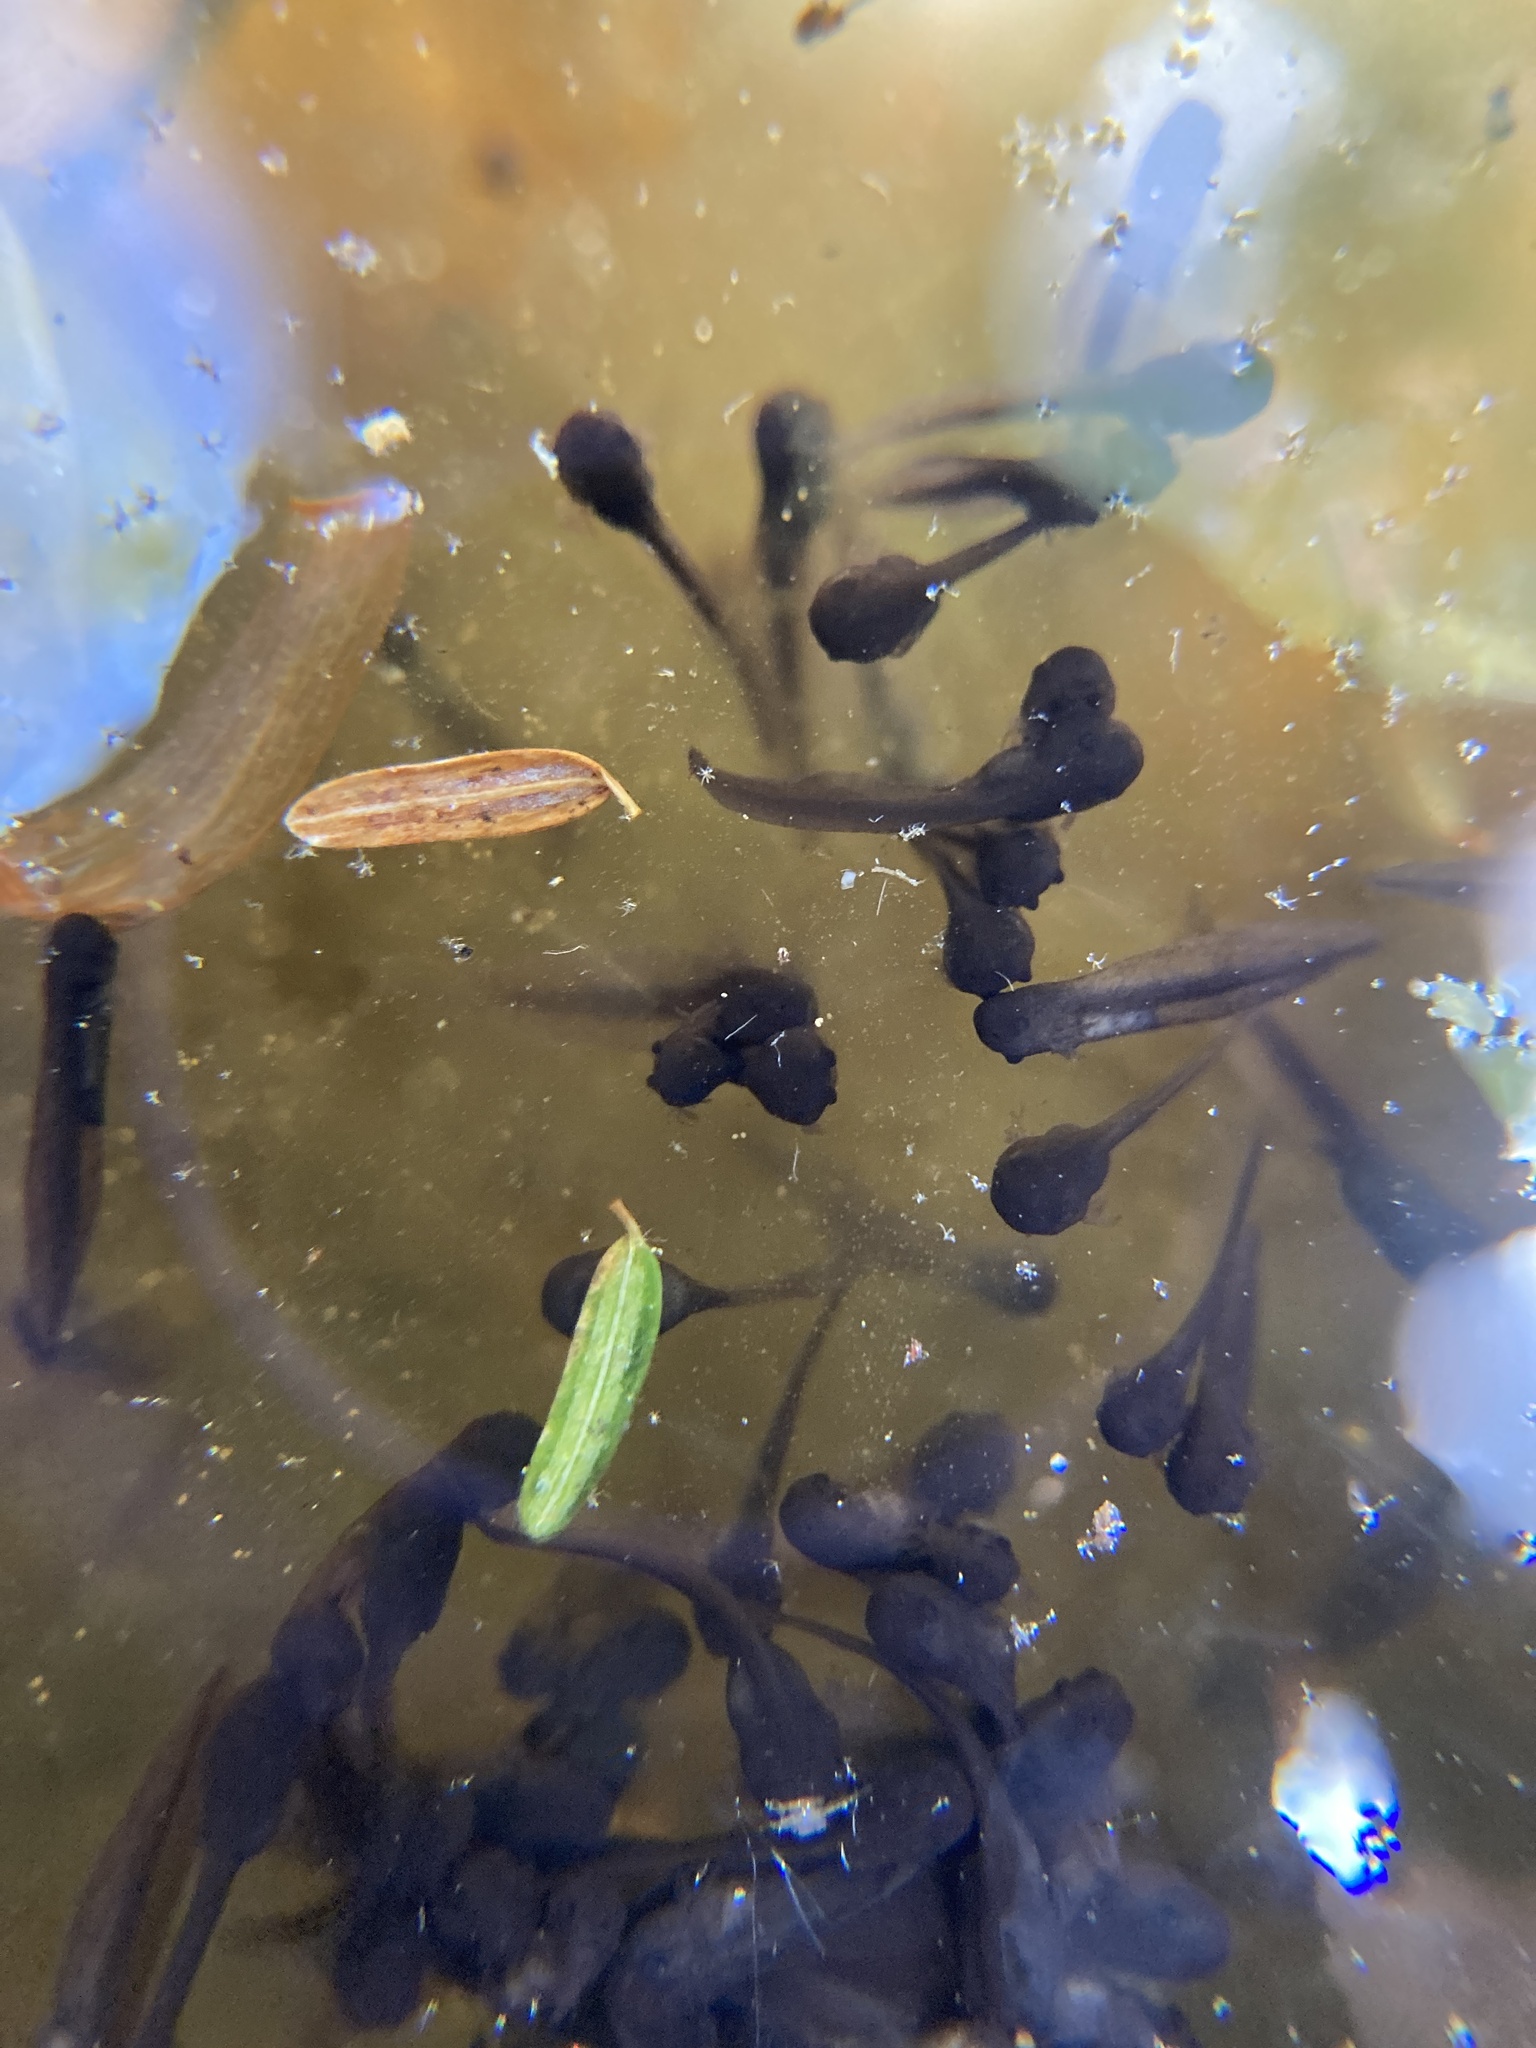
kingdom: Animalia
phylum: Chordata
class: Amphibia
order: Caudata
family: Ambystomatidae
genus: Ambystoma
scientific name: Ambystoma maculatum
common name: Spotted salamander
